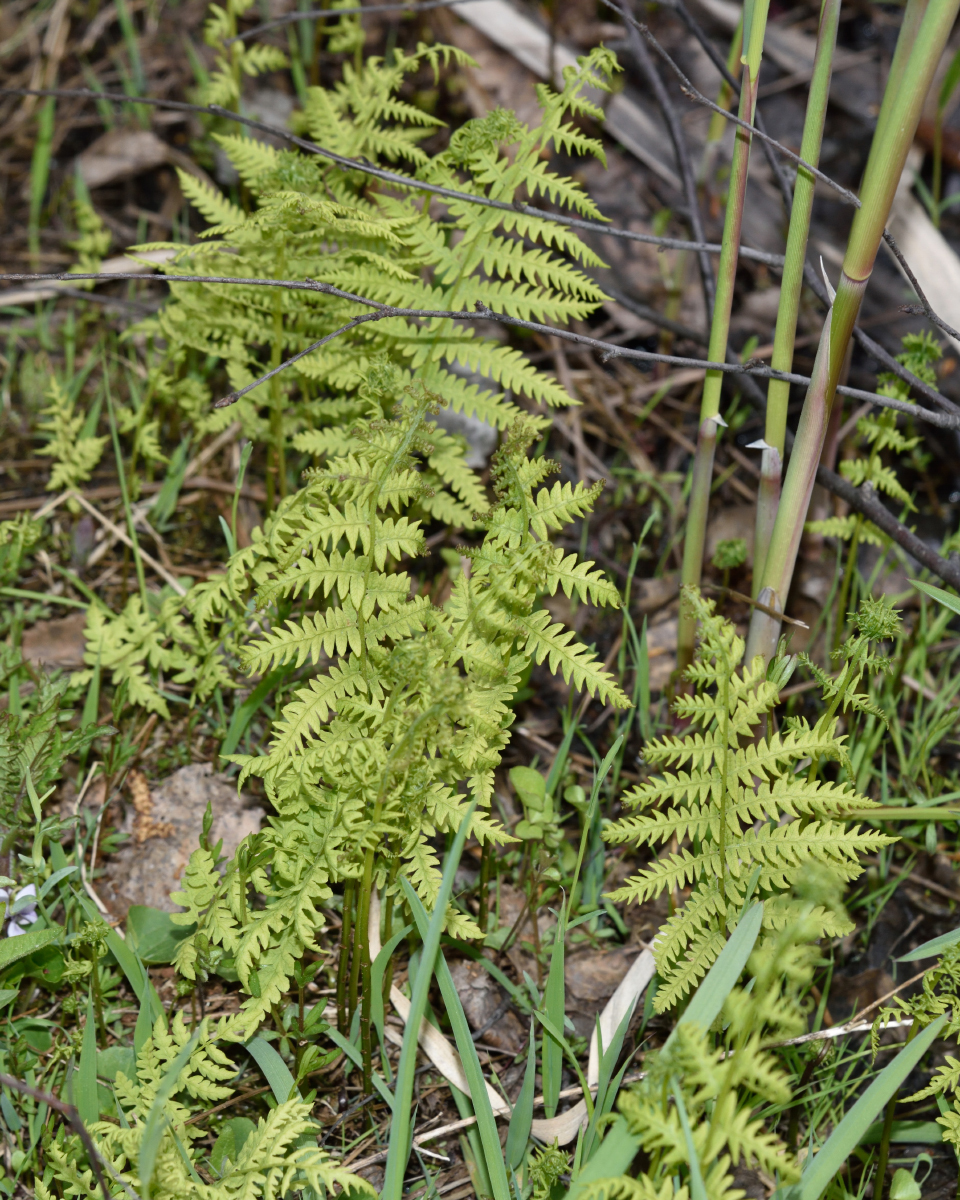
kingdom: Plantae
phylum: Tracheophyta
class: Polypodiopsida
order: Polypodiales
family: Thelypteridaceae
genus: Thelypteris
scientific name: Thelypteris palustris
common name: Marsh fern
